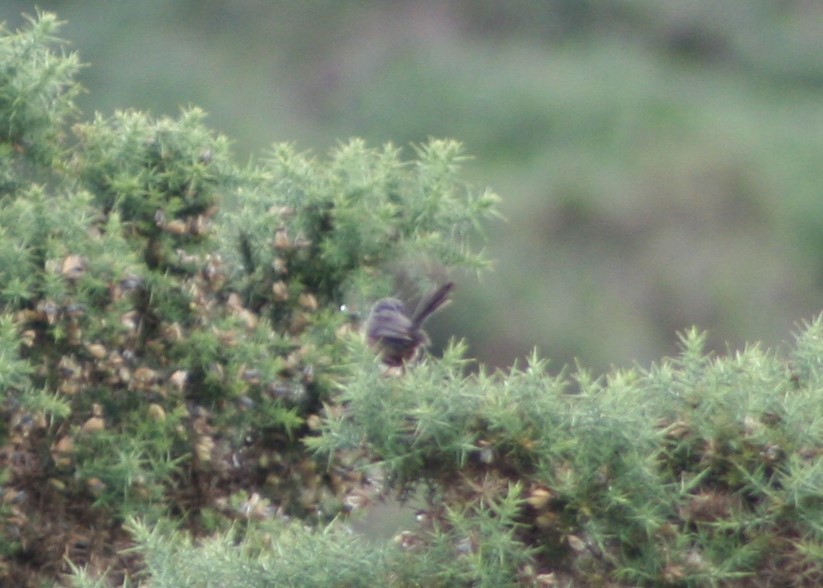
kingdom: Animalia
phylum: Chordata
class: Aves
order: Passeriformes
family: Sylviidae
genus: Sylvia
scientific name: Sylvia undata
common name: Dartford warbler
